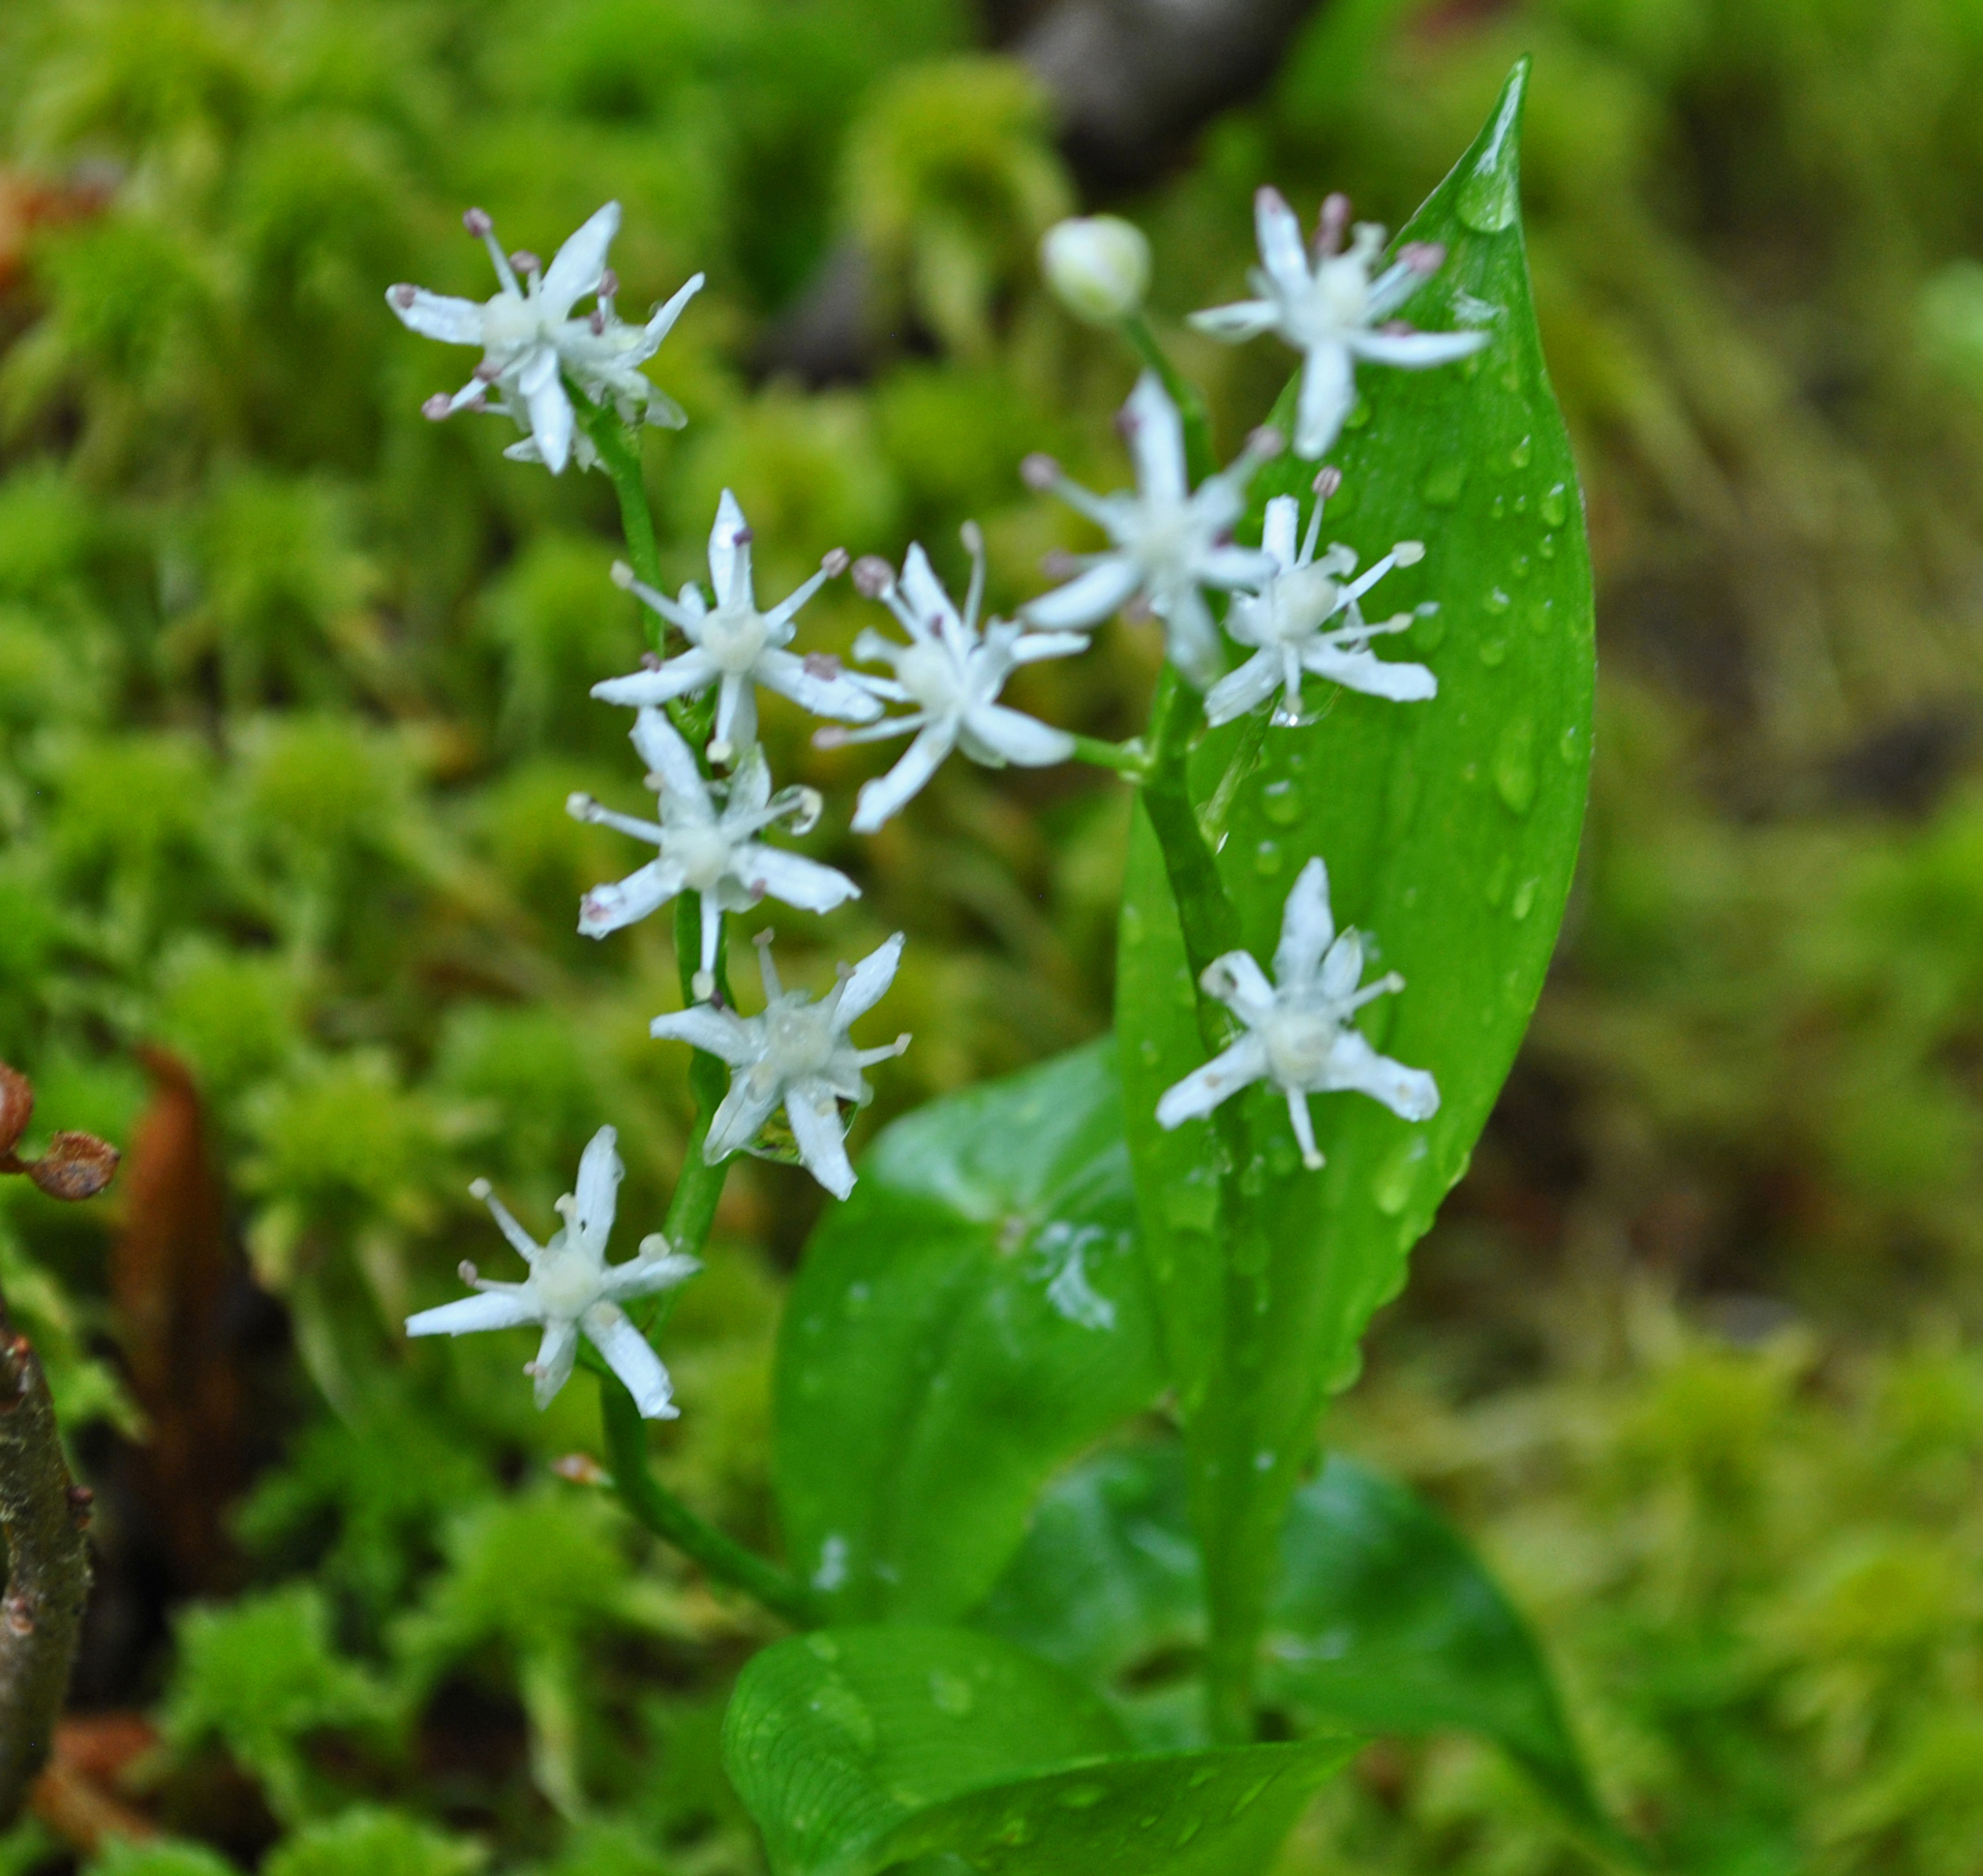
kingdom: Plantae
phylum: Tracheophyta
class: Liliopsida
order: Asparagales
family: Asparagaceae
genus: Maianthemum
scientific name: Maianthemum trifolium
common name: Swamp false solomon's seal
